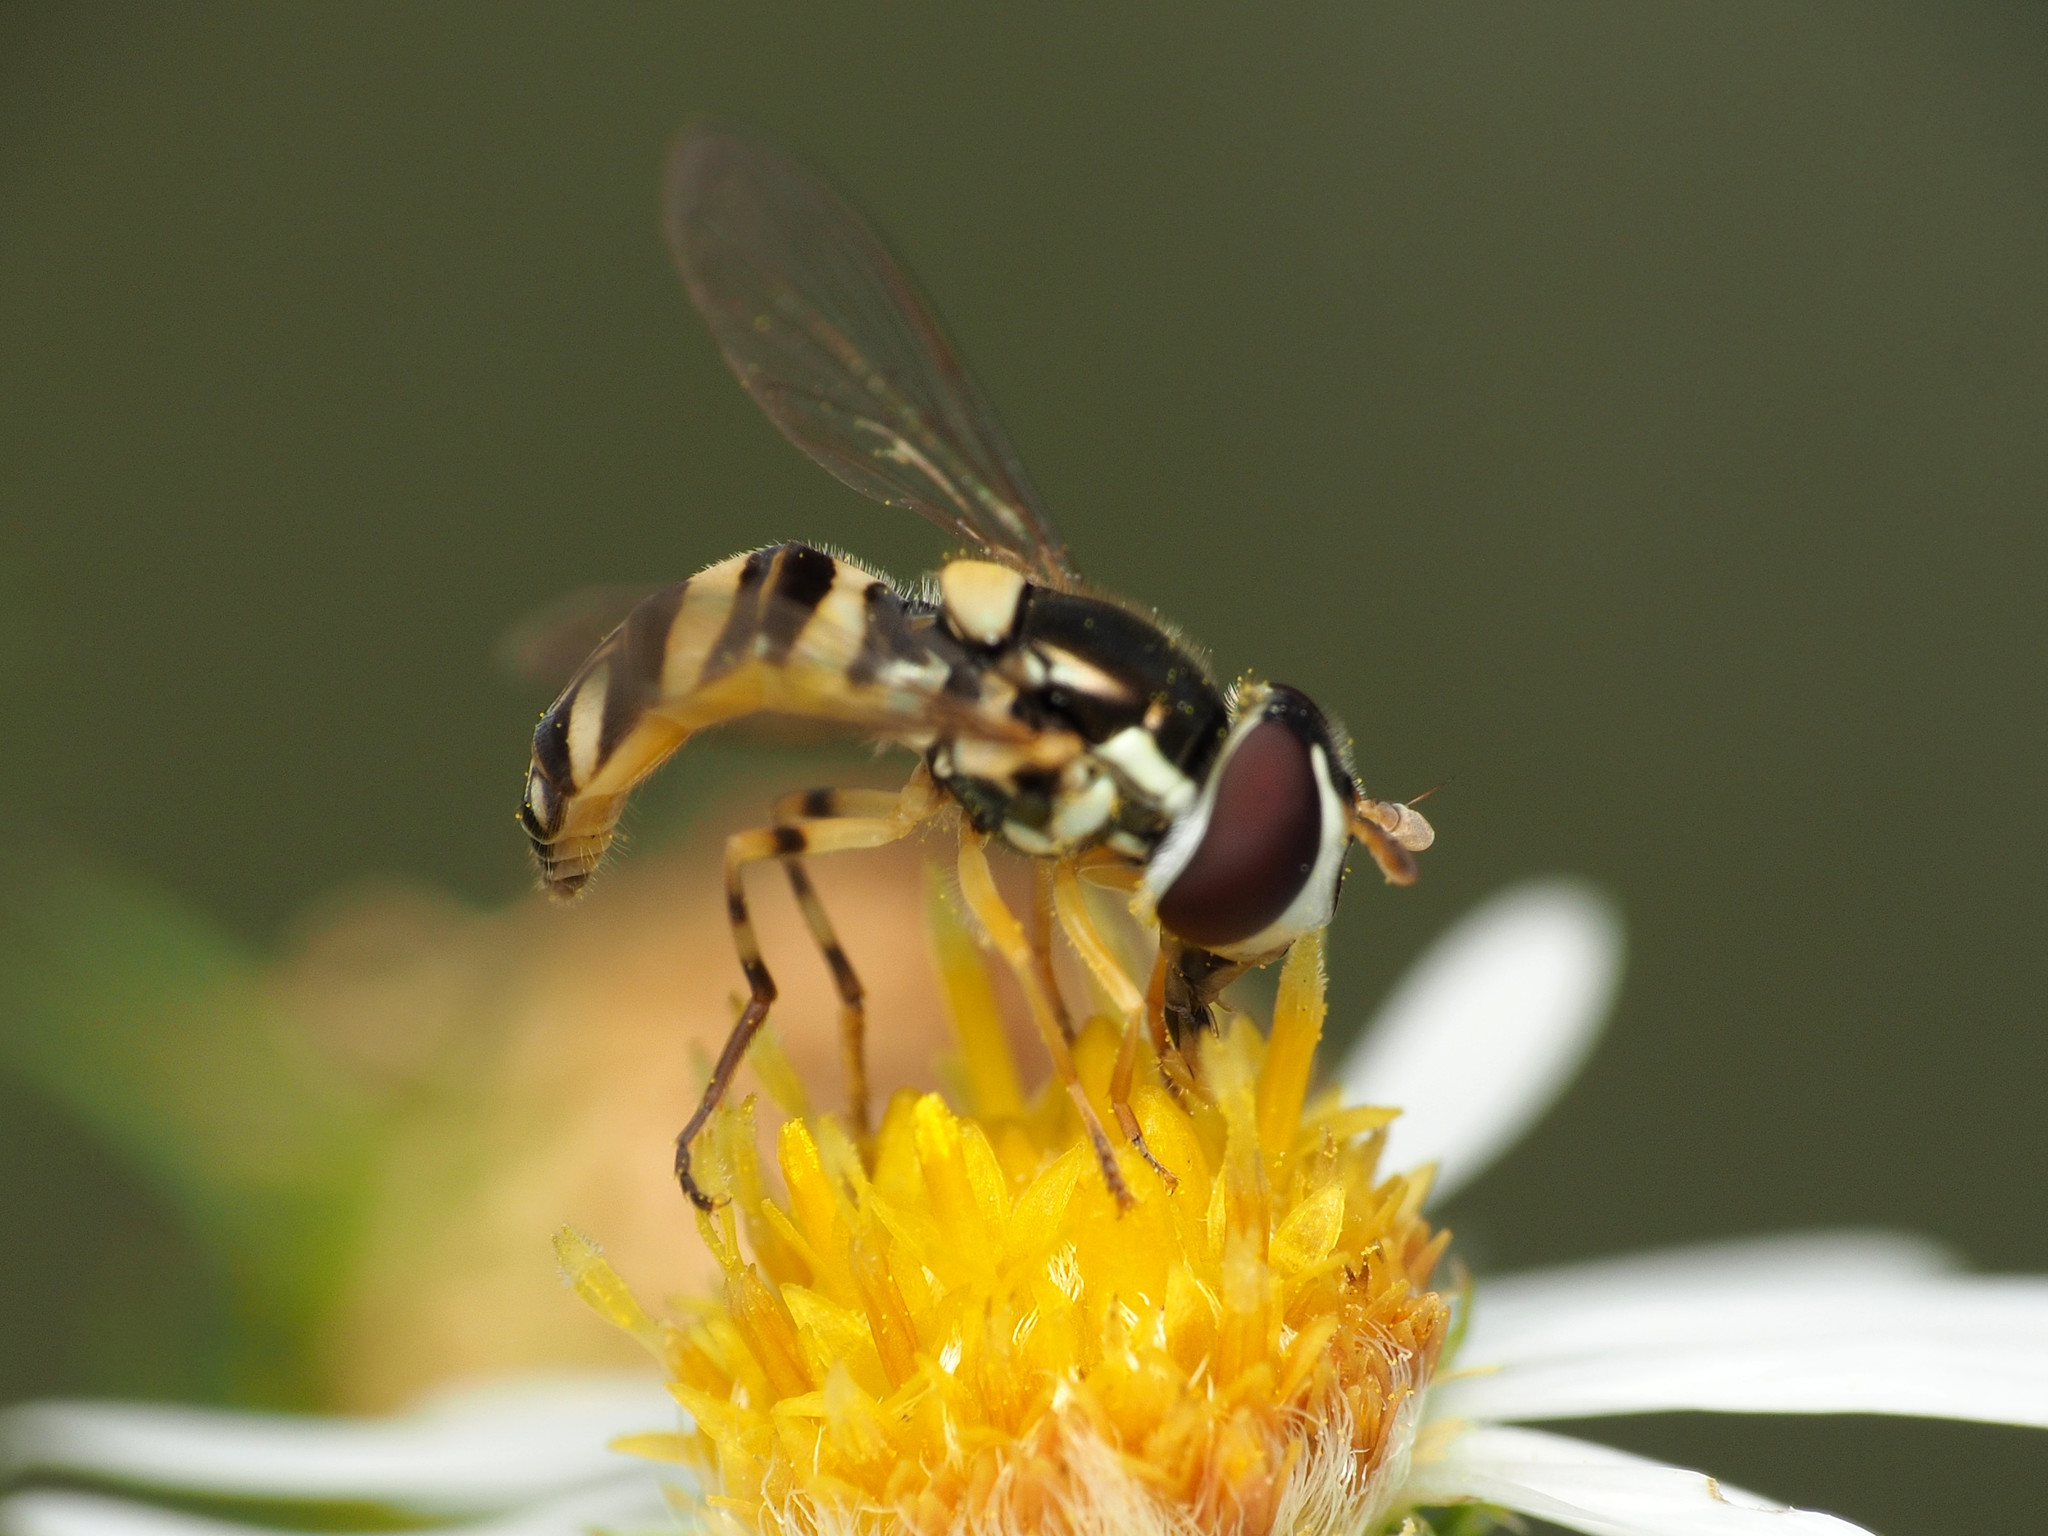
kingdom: Animalia
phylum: Arthropoda
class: Insecta
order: Diptera
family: Syrphidae
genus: Allograpta
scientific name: Allograpta exotica
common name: Syrphid fly
